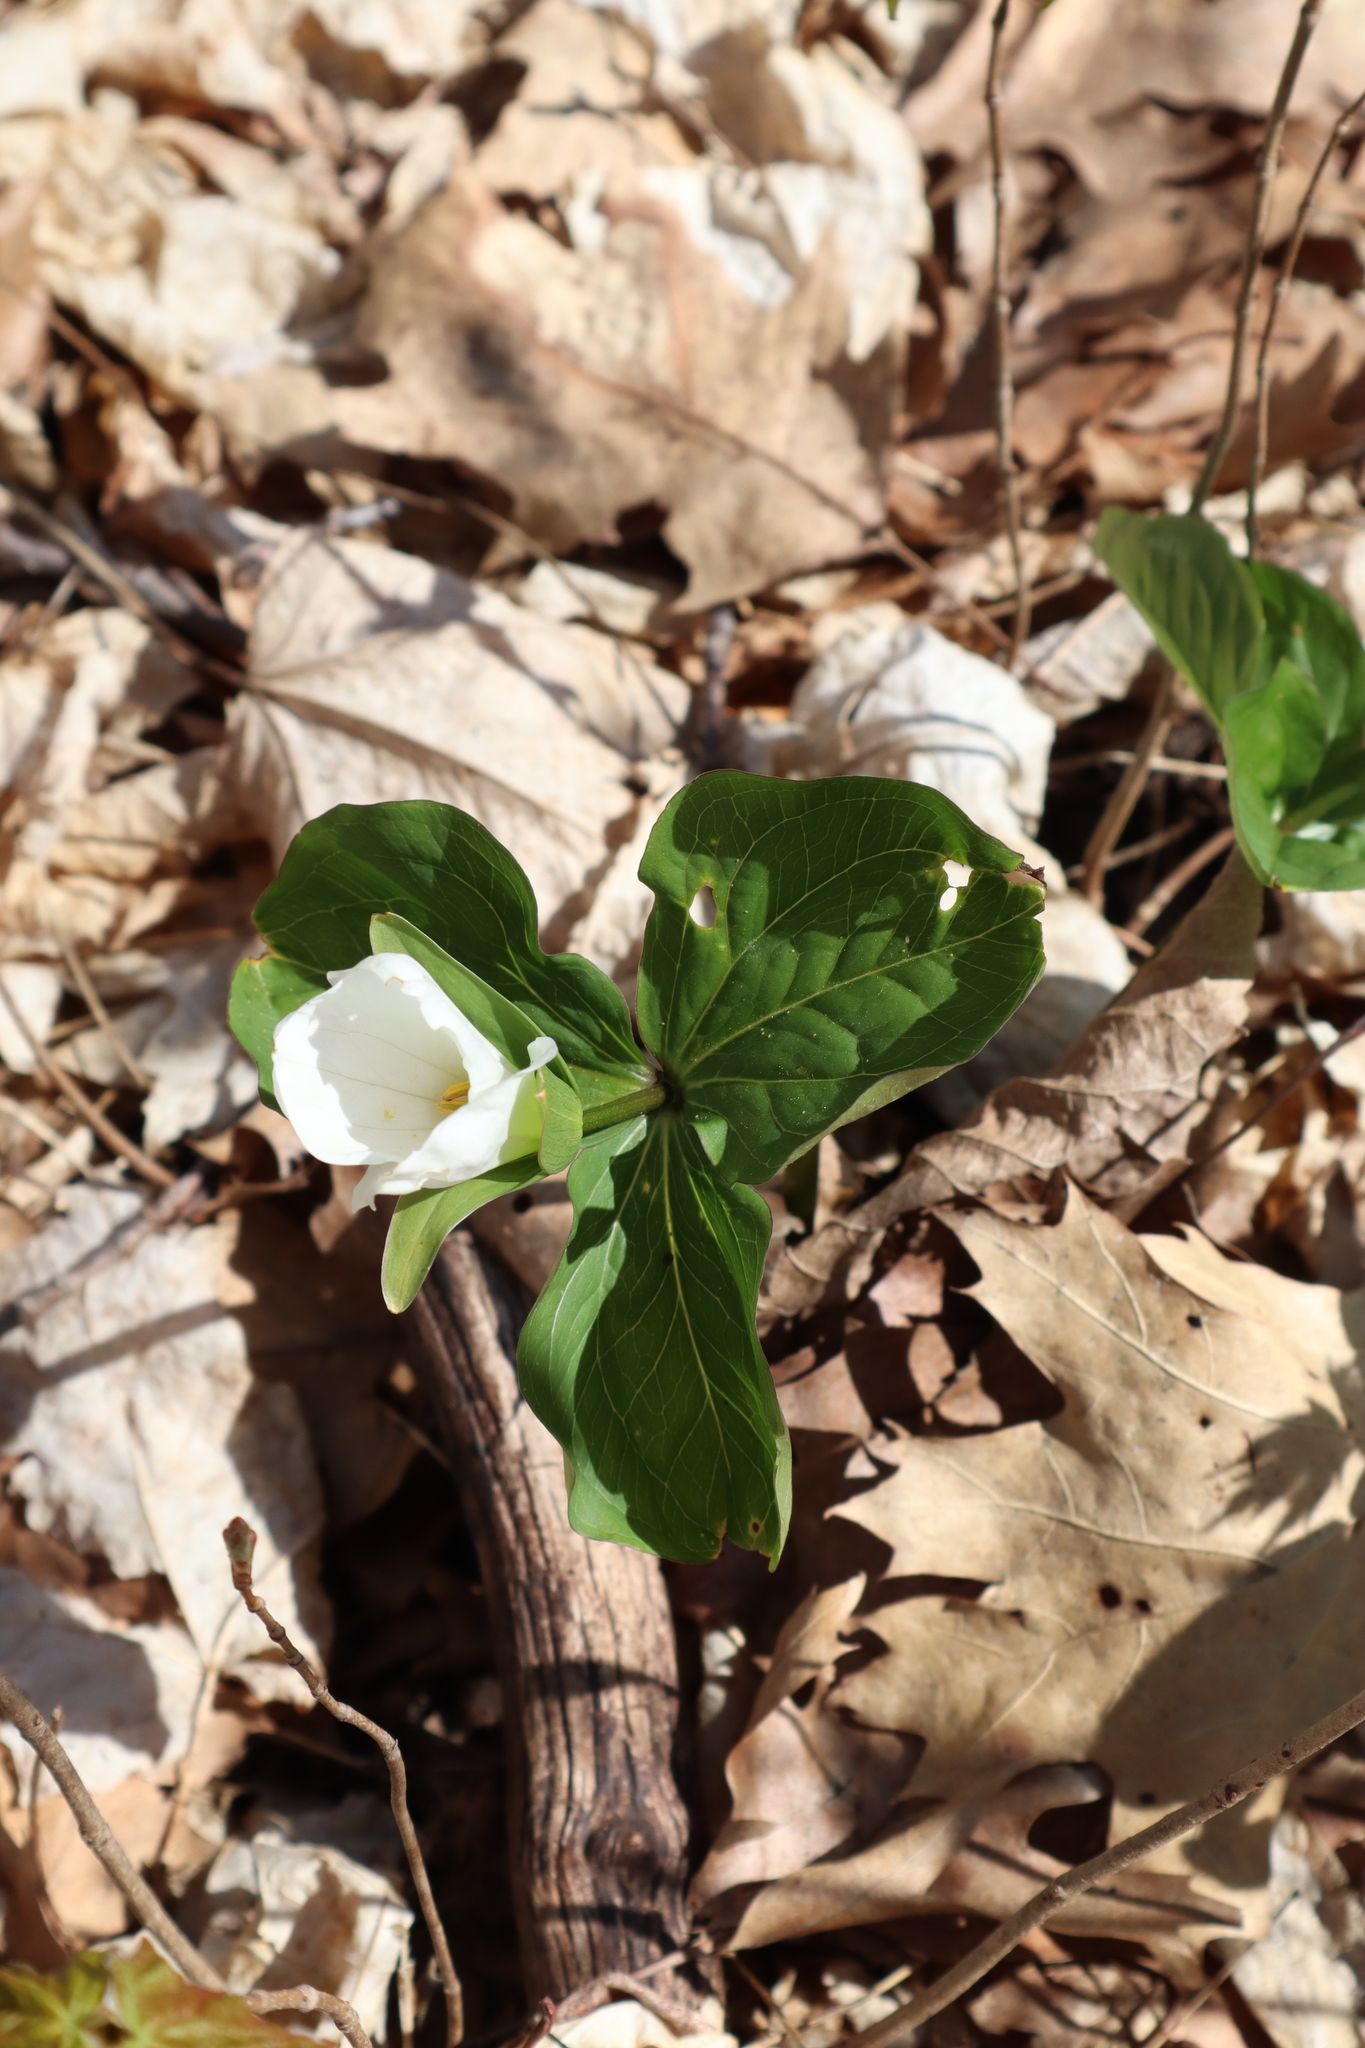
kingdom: Plantae
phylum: Tracheophyta
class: Liliopsida
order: Liliales
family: Melanthiaceae
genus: Trillium
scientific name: Trillium grandiflorum
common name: Great white trillium
